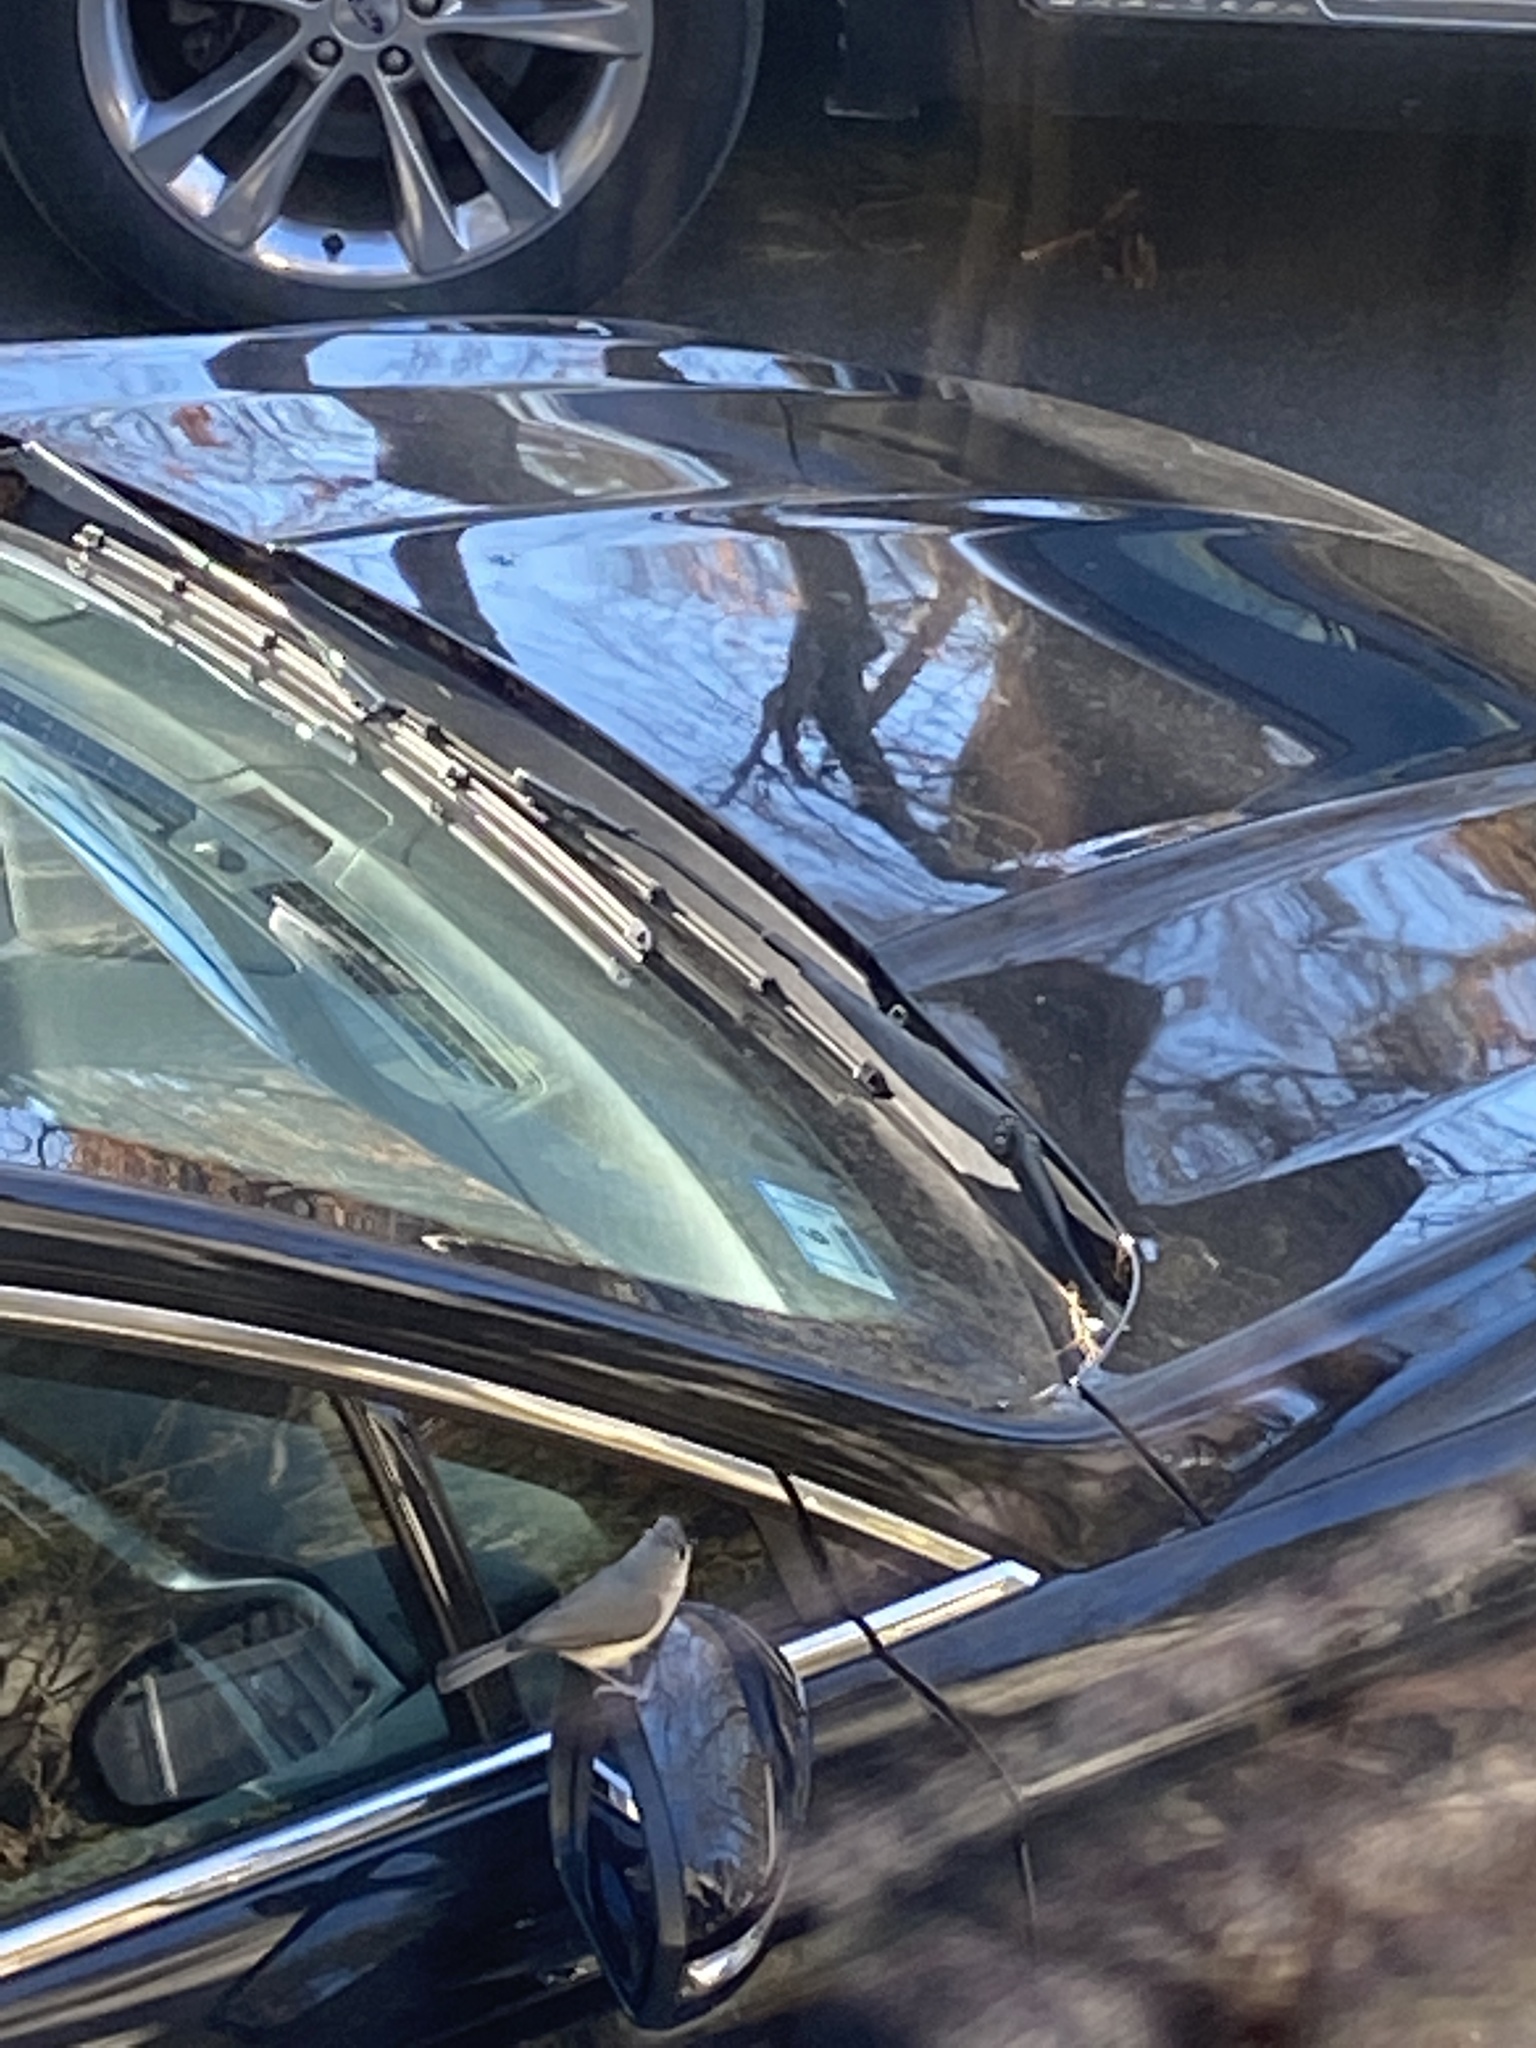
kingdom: Animalia
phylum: Chordata
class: Aves
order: Passeriformes
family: Paridae
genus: Baeolophus
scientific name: Baeolophus bicolor
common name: Tufted titmouse
